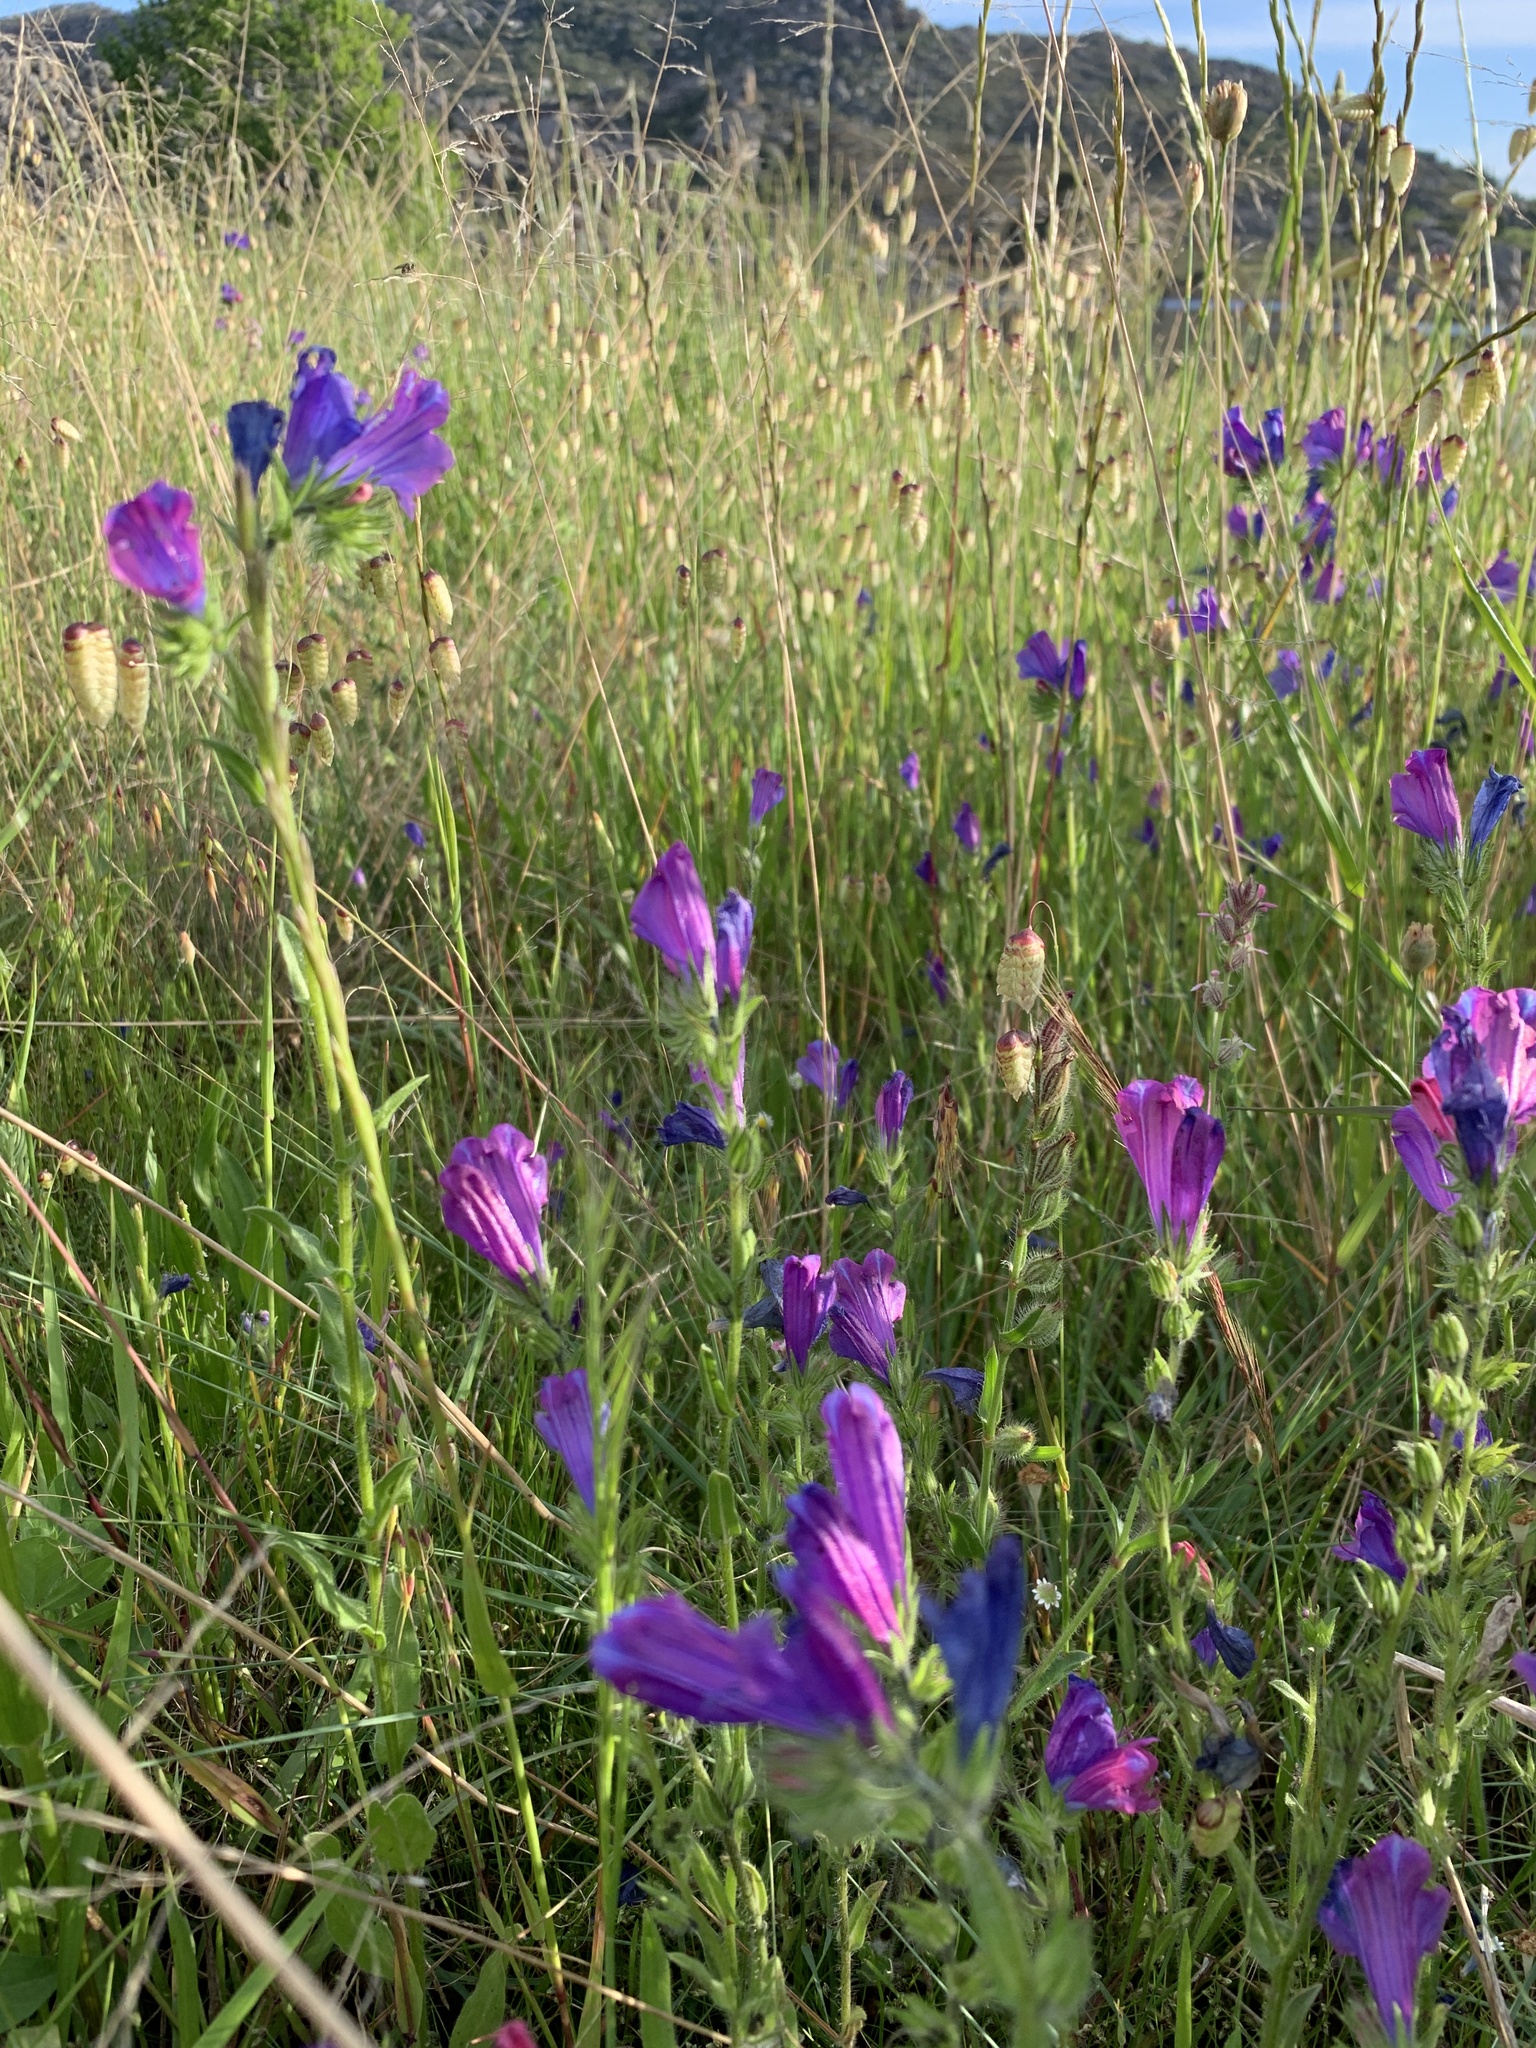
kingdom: Plantae
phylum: Tracheophyta
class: Magnoliopsida
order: Boraginales
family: Boraginaceae
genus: Echium
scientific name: Echium plantagineum
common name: Purple viper's-bugloss
